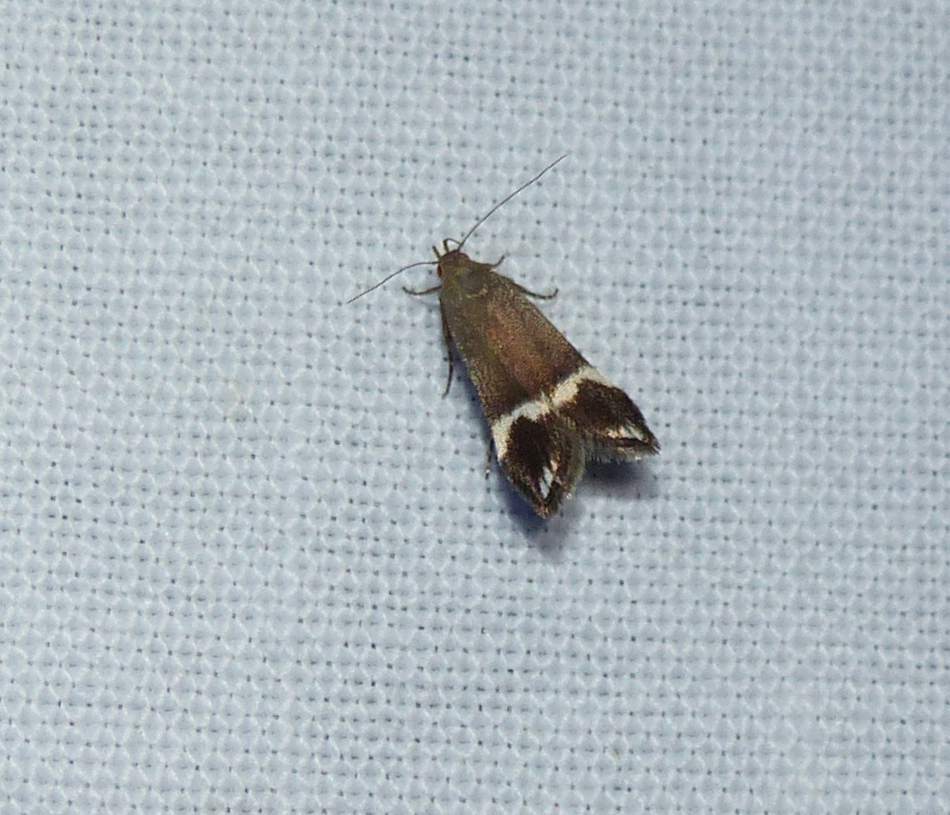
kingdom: Animalia
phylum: Arthropoda
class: Insecta
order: Lepidoptera
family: Gelechiidae
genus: Anacampsis
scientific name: Anacampsis tristrigella
